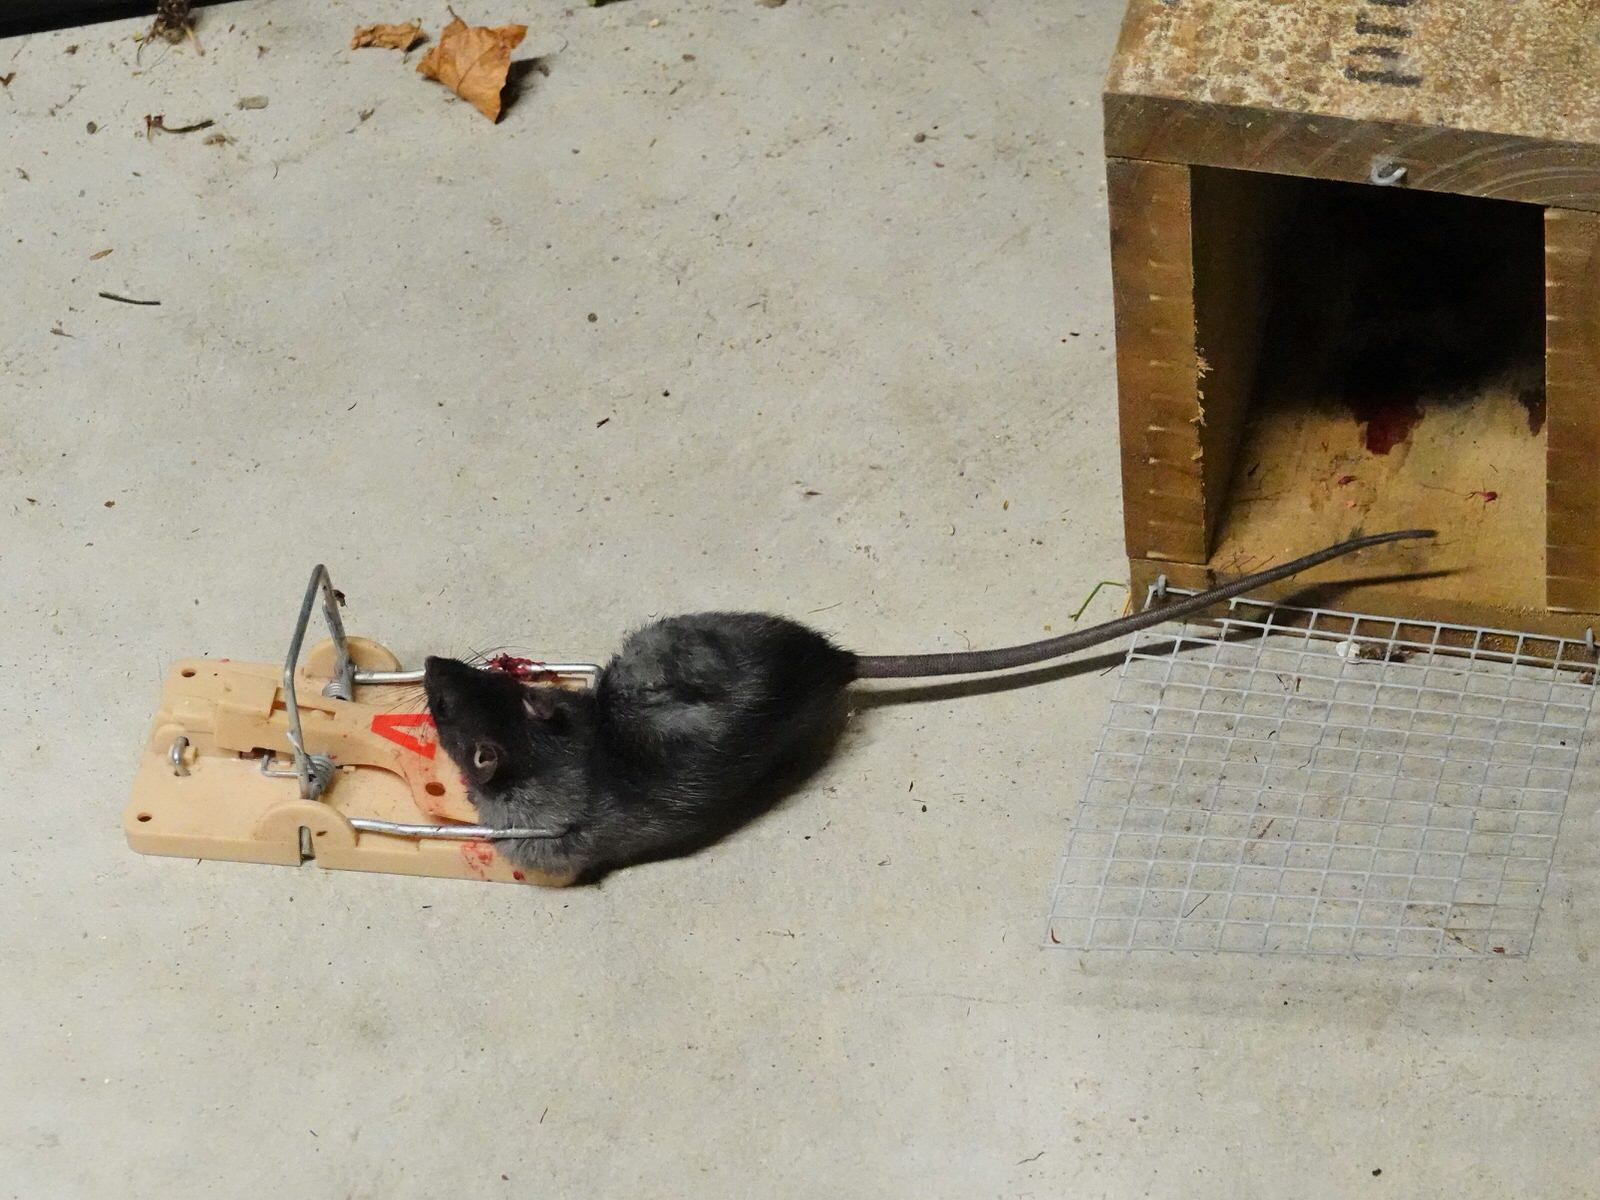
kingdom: Animalia
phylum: Chordata
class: Mammalia
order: Rodentia
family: Muridae
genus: Rattus
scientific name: Rattus rattus
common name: Black rat
